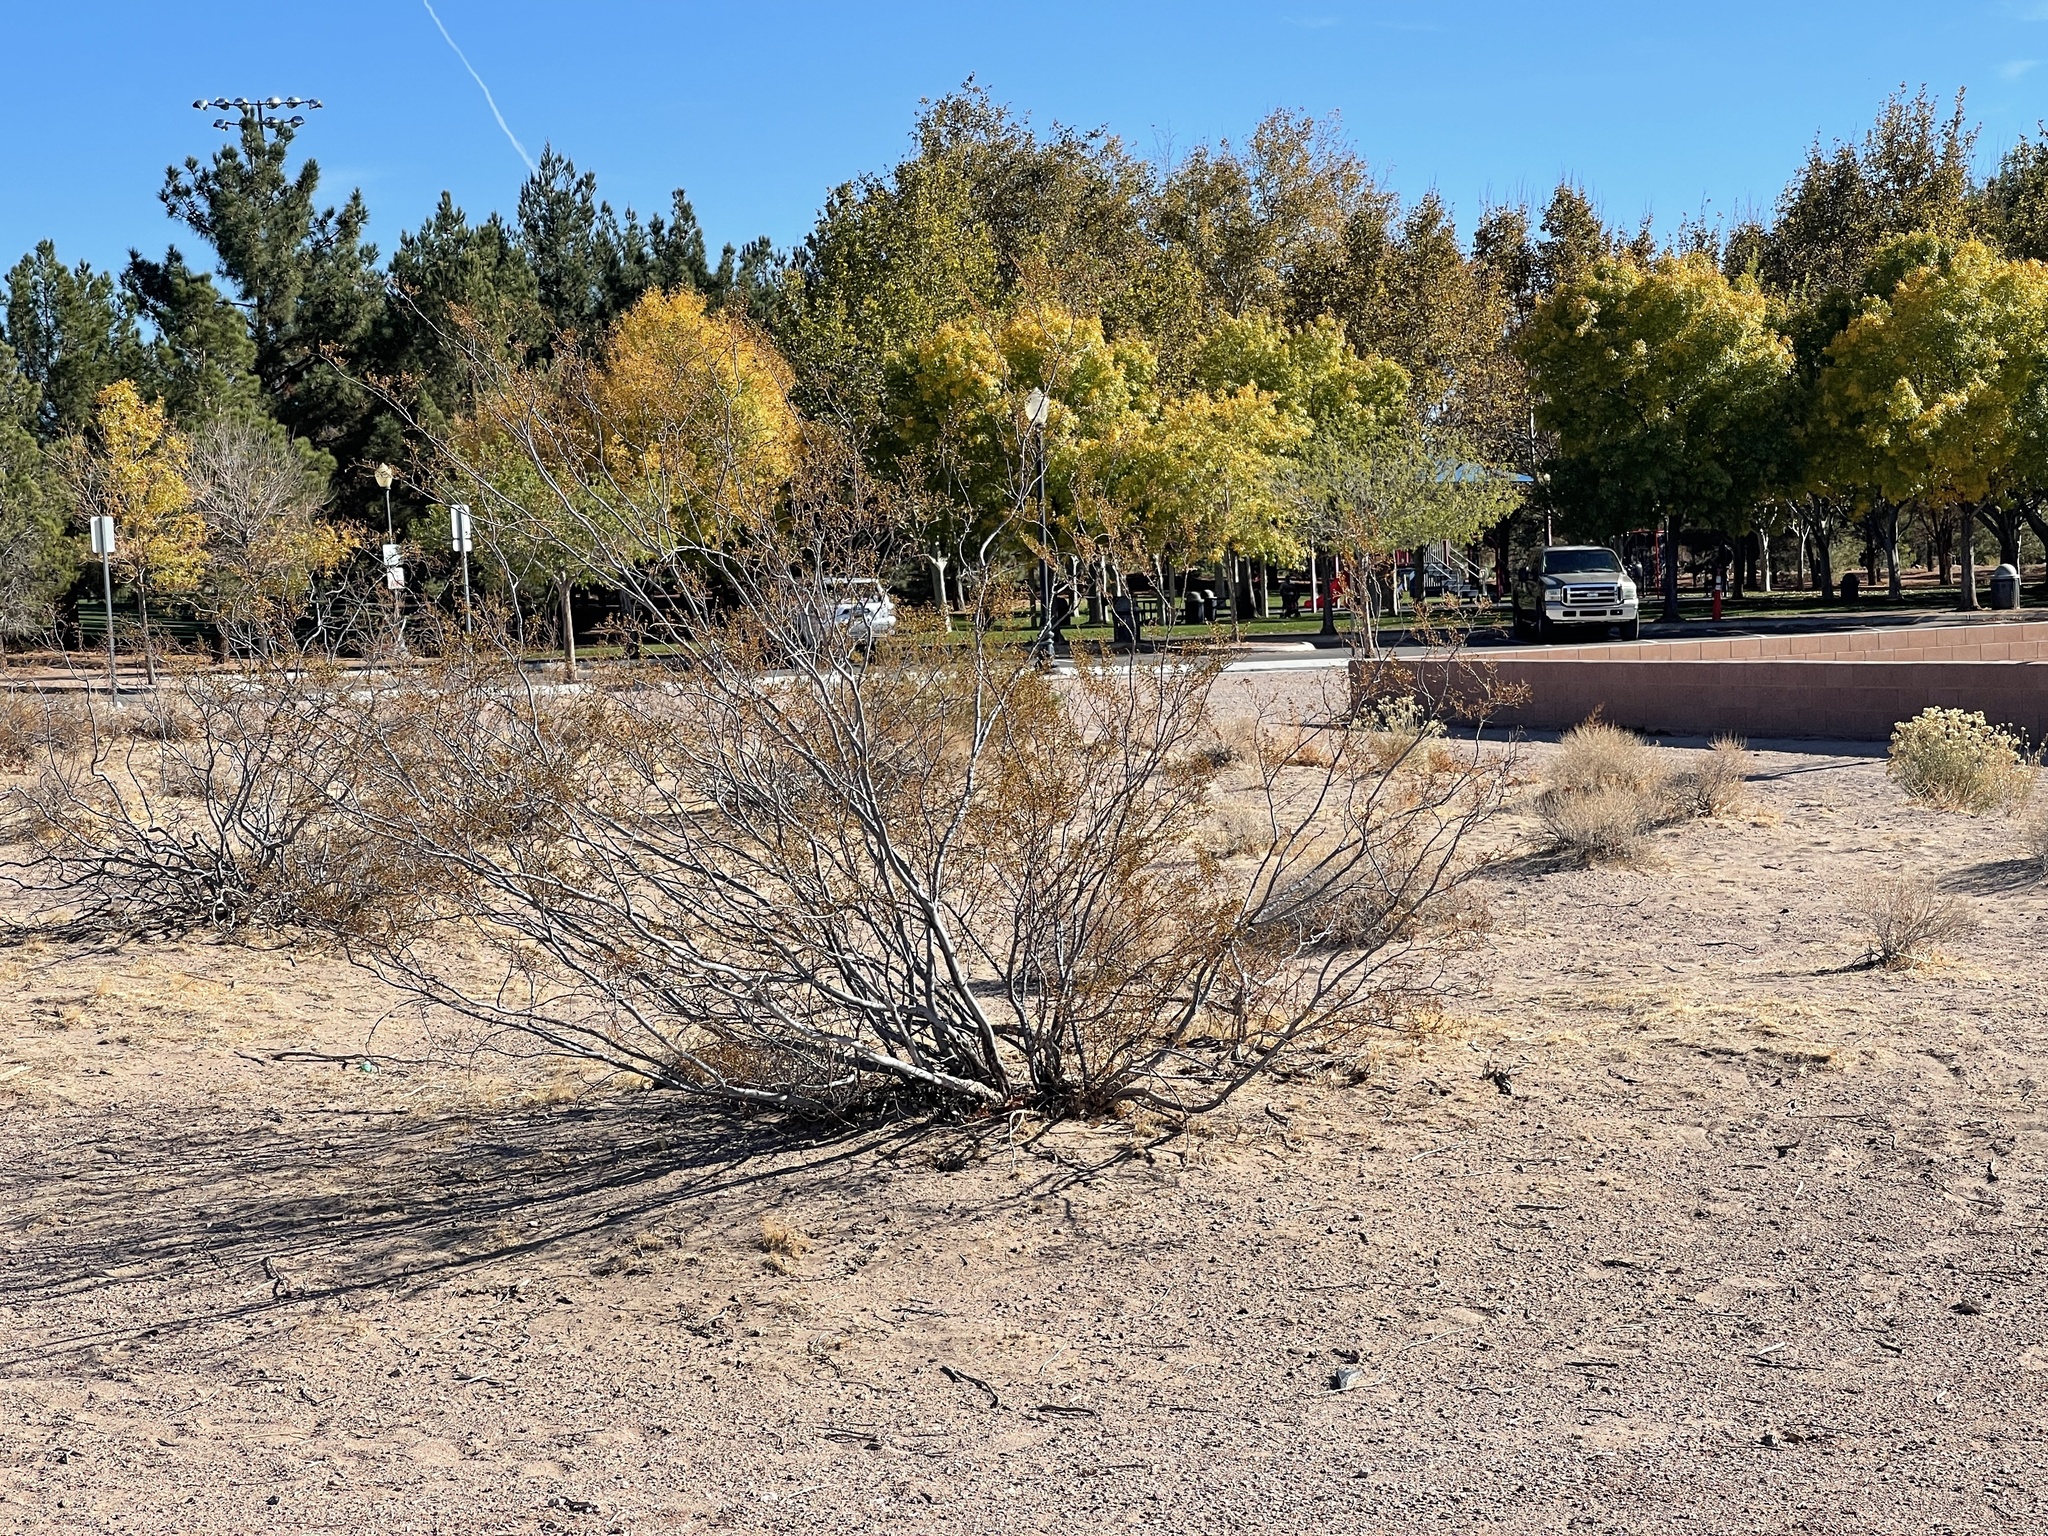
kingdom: Plantae
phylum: Tracheophyta
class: Magnoliopsida
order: Zygophyllales
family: Zygophyllaceae
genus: Larrea
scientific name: Larrea tridentata
